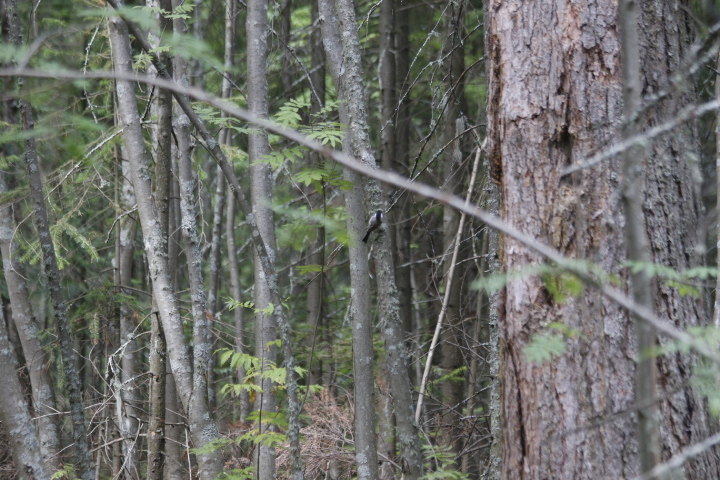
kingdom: Animalia
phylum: Chordata
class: Aves
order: Passeriformes
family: Paridae
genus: Poecile
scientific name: Poecile montanus
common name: Willow tit
